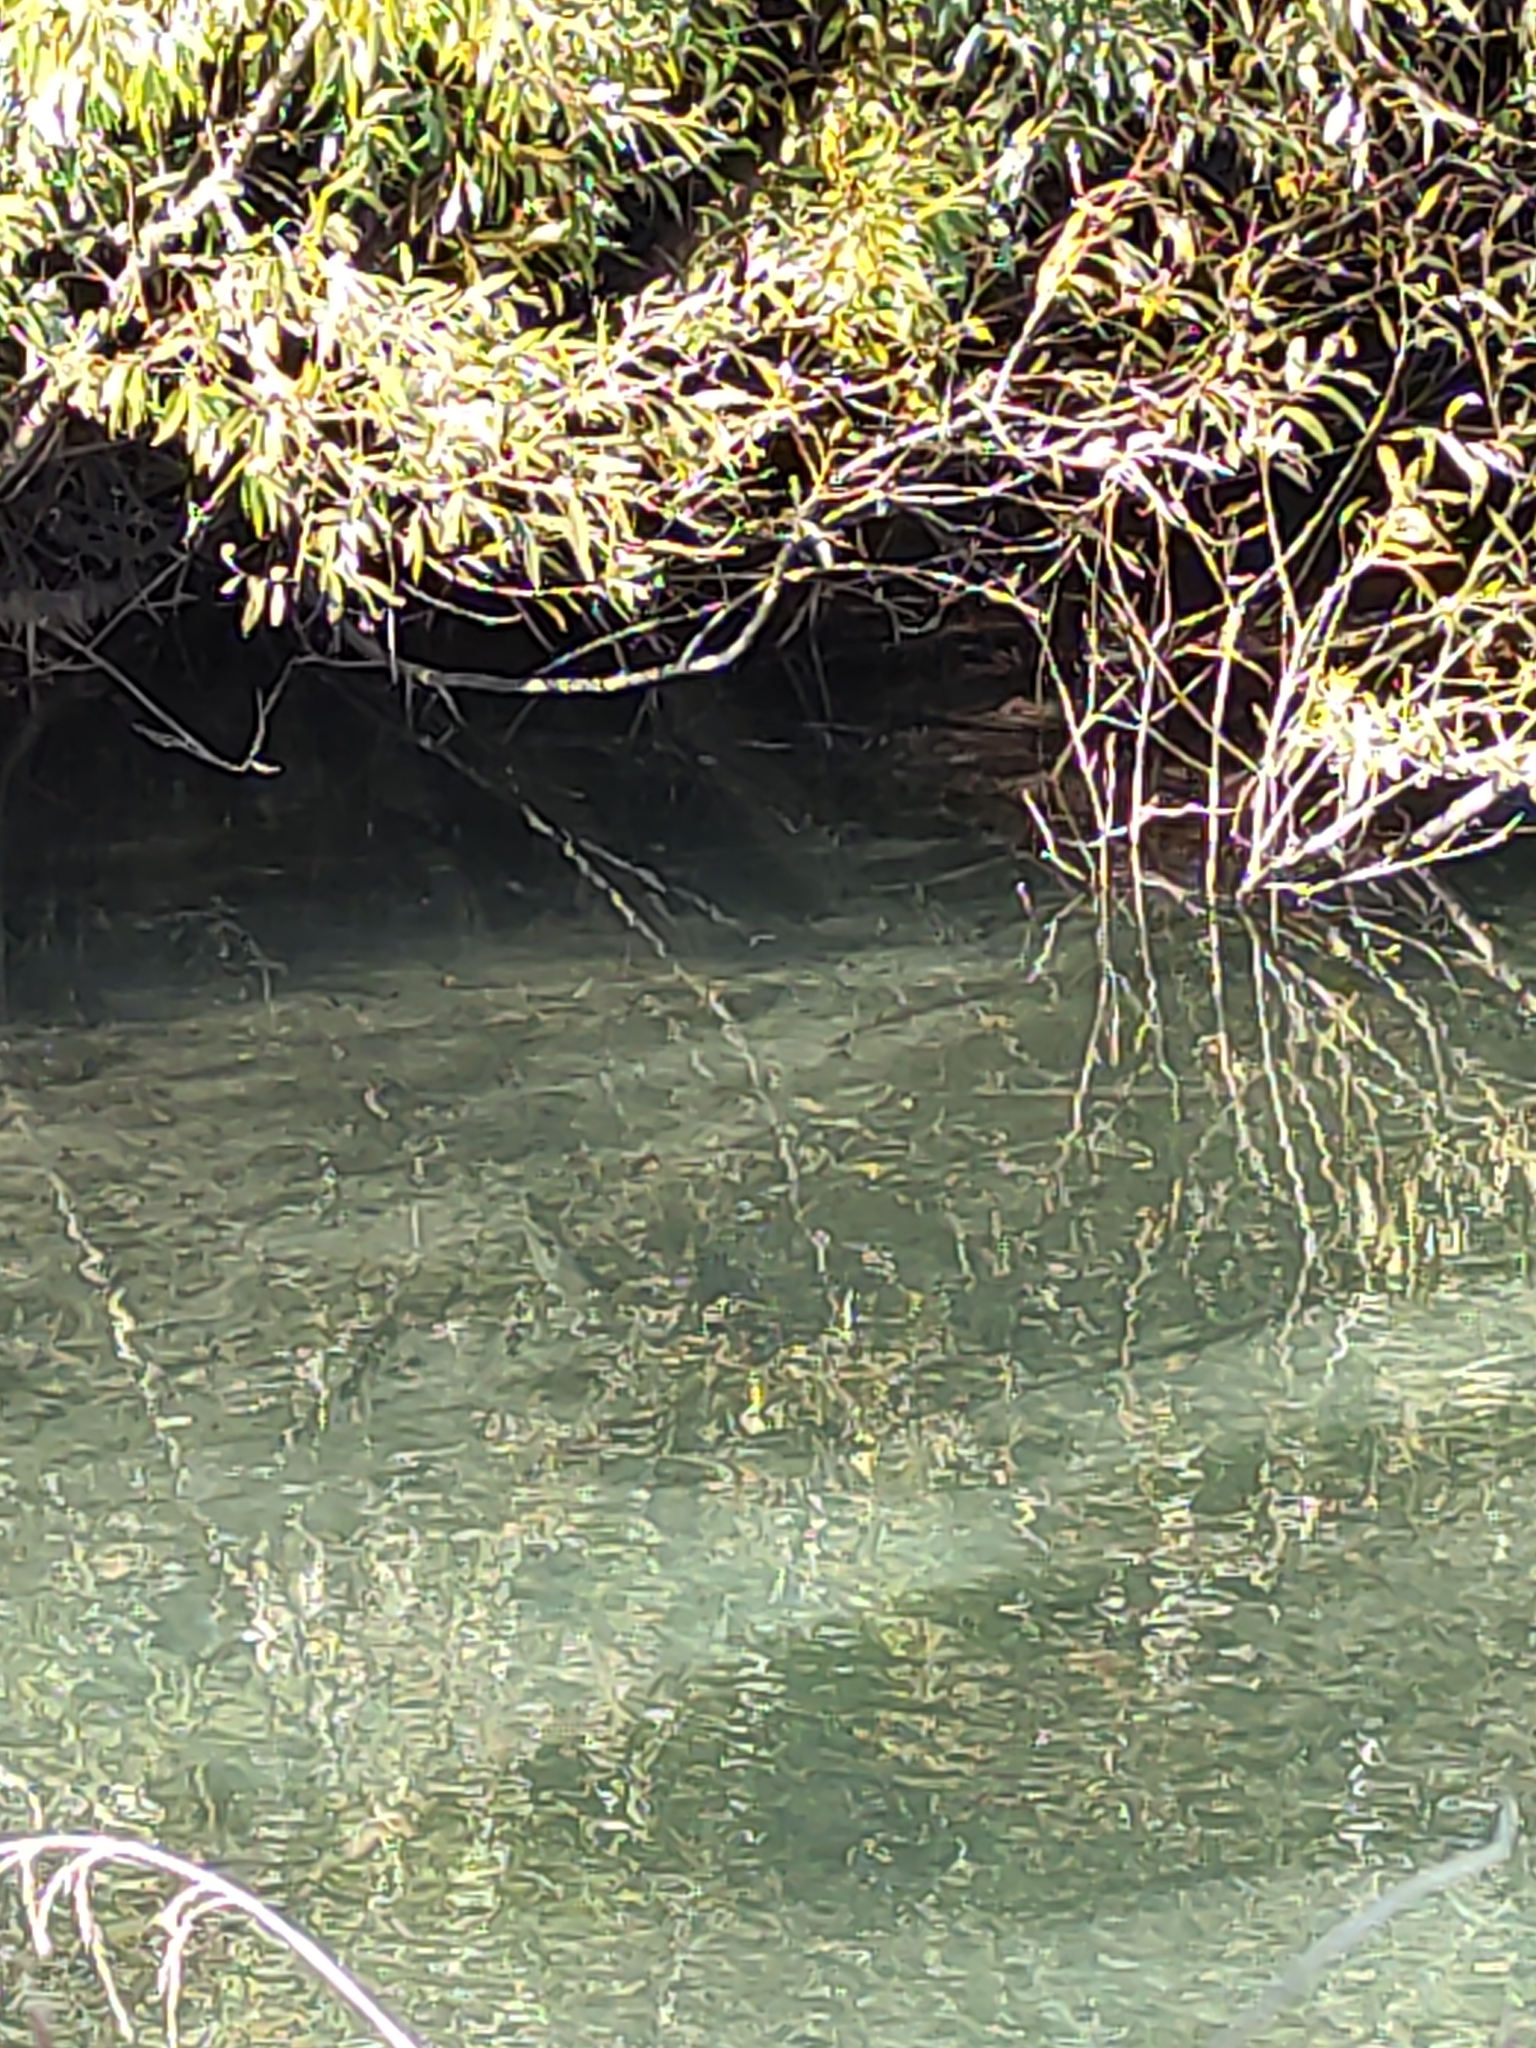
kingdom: Animalia
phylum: Chordata
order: Salmoniformes
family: Salmonidae
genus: Salmo
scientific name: Salmo trutta
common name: Brown trout
